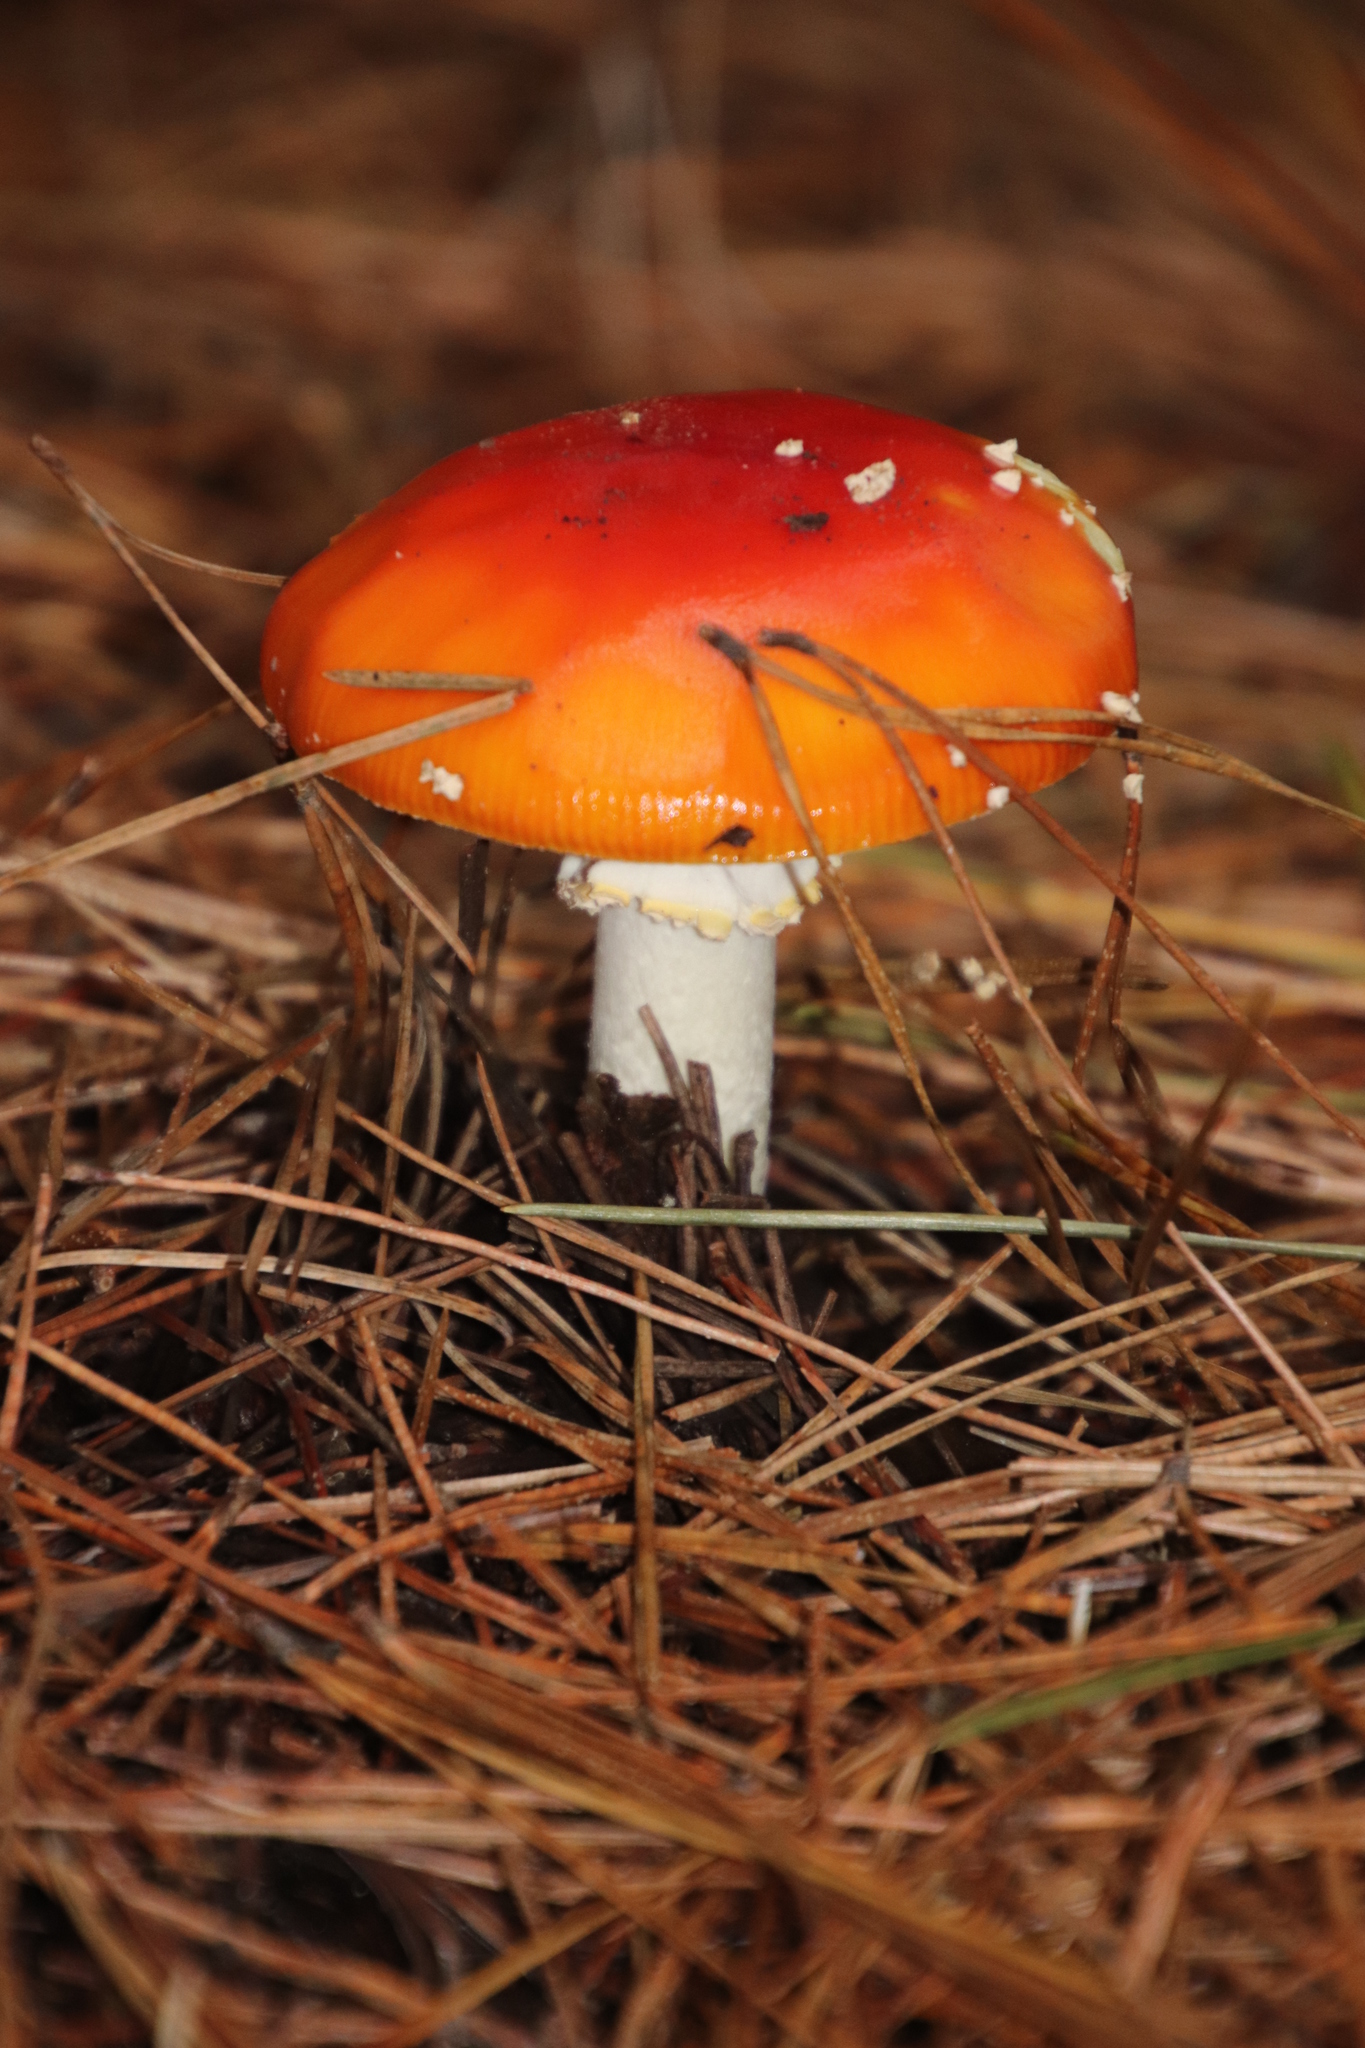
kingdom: Fungi
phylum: Basidiomycota
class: Agaricomycetes
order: Agaricales
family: Amanitaceae
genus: Amanita
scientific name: Amanita muscaria
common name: Fly agaric
